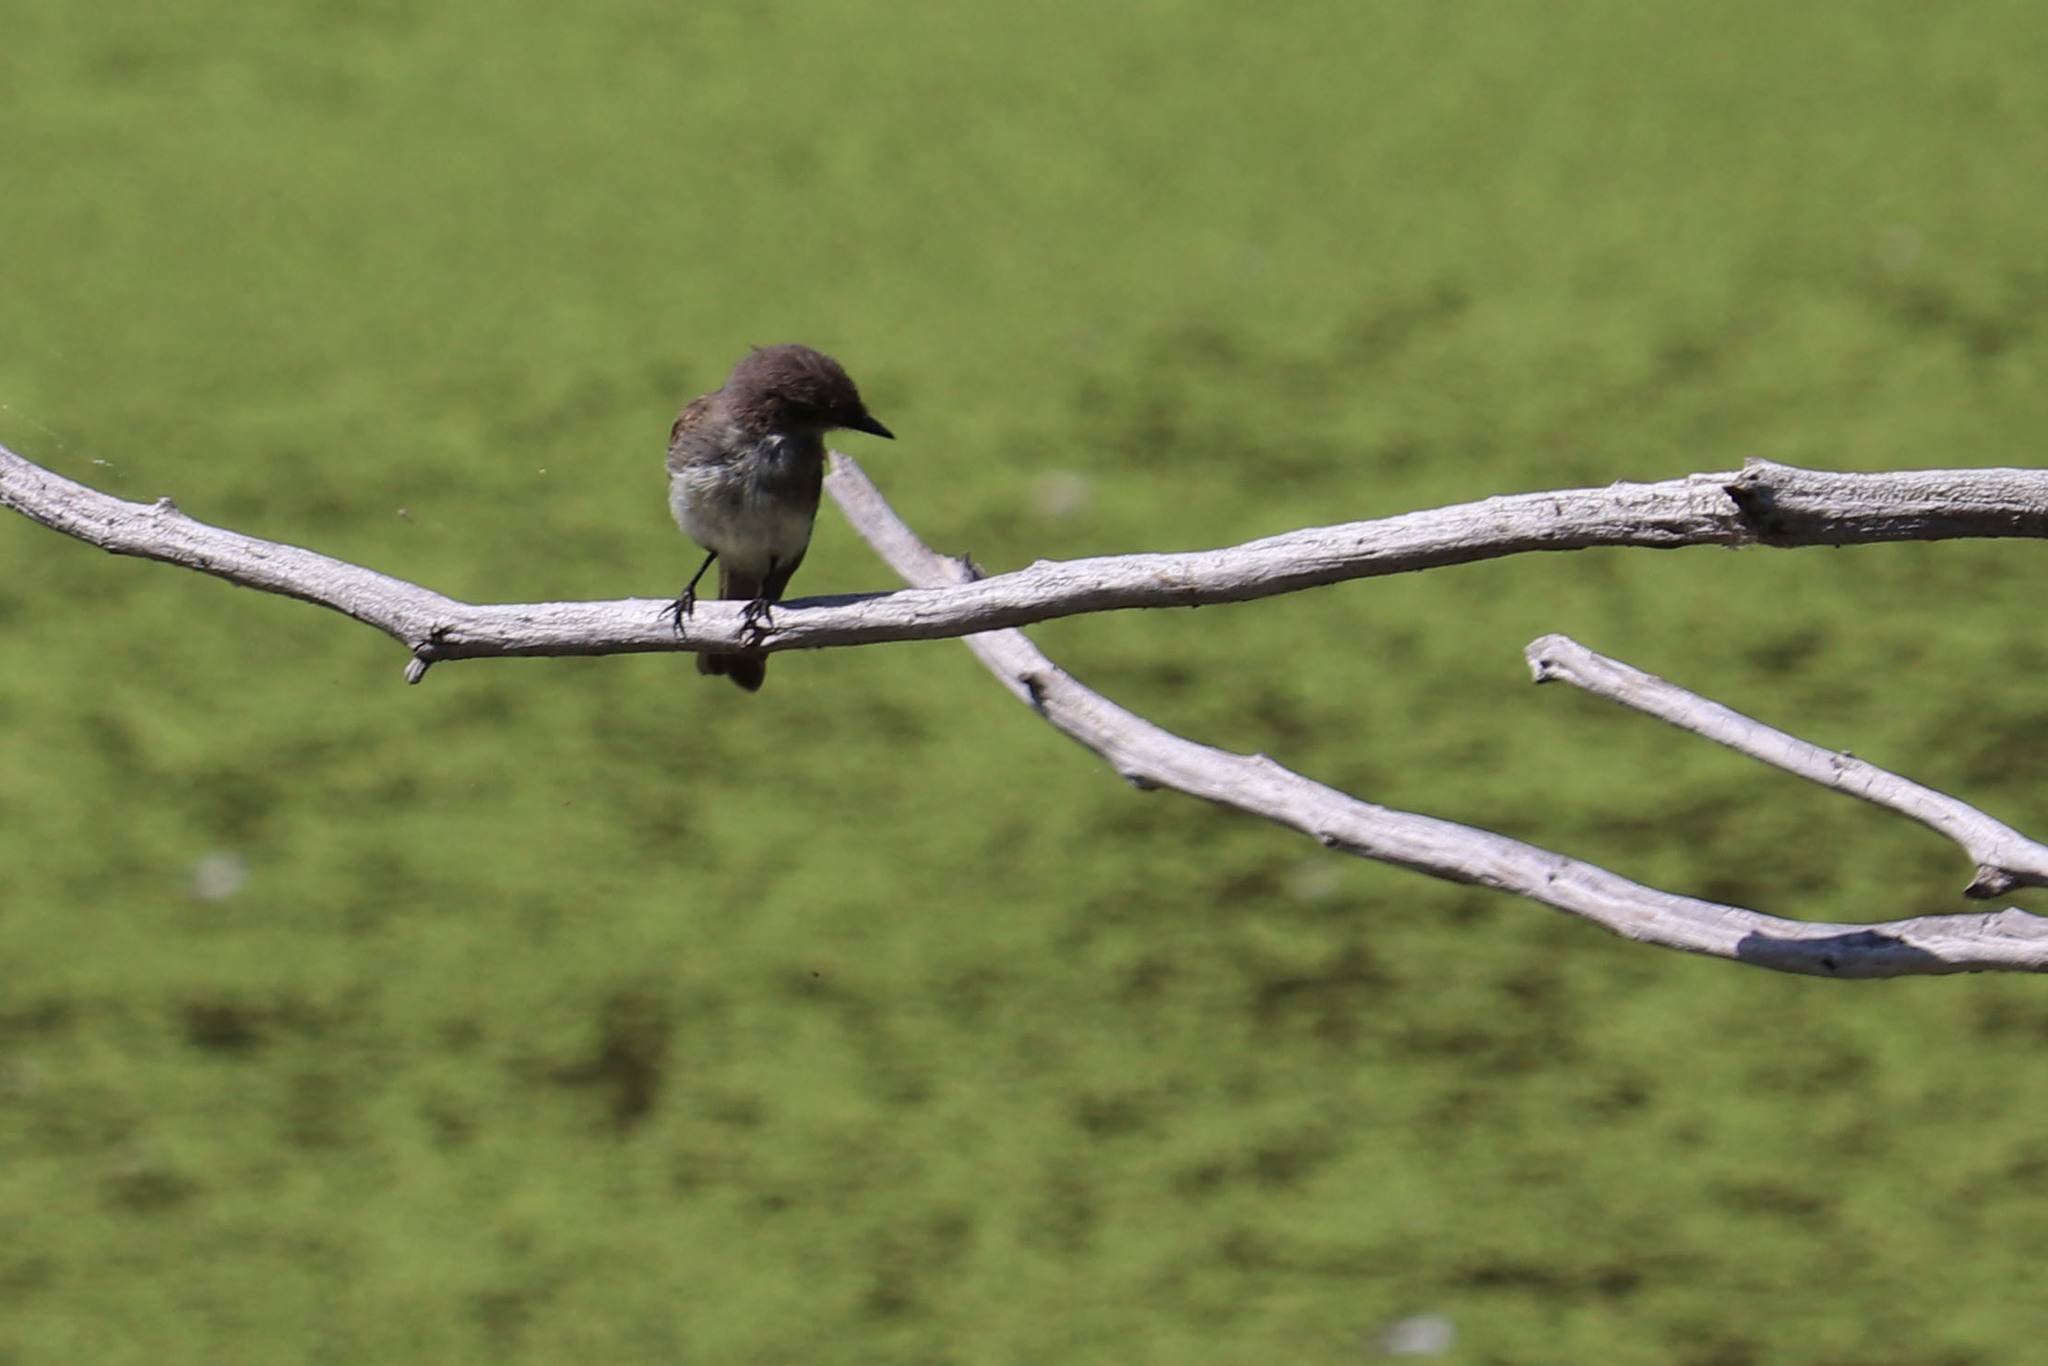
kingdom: Animalia
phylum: Chordata
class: Aves
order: Passeriformes
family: Tyrannidae
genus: Sayornis
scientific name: Sayornis phoebe
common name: Eastern phoebe
